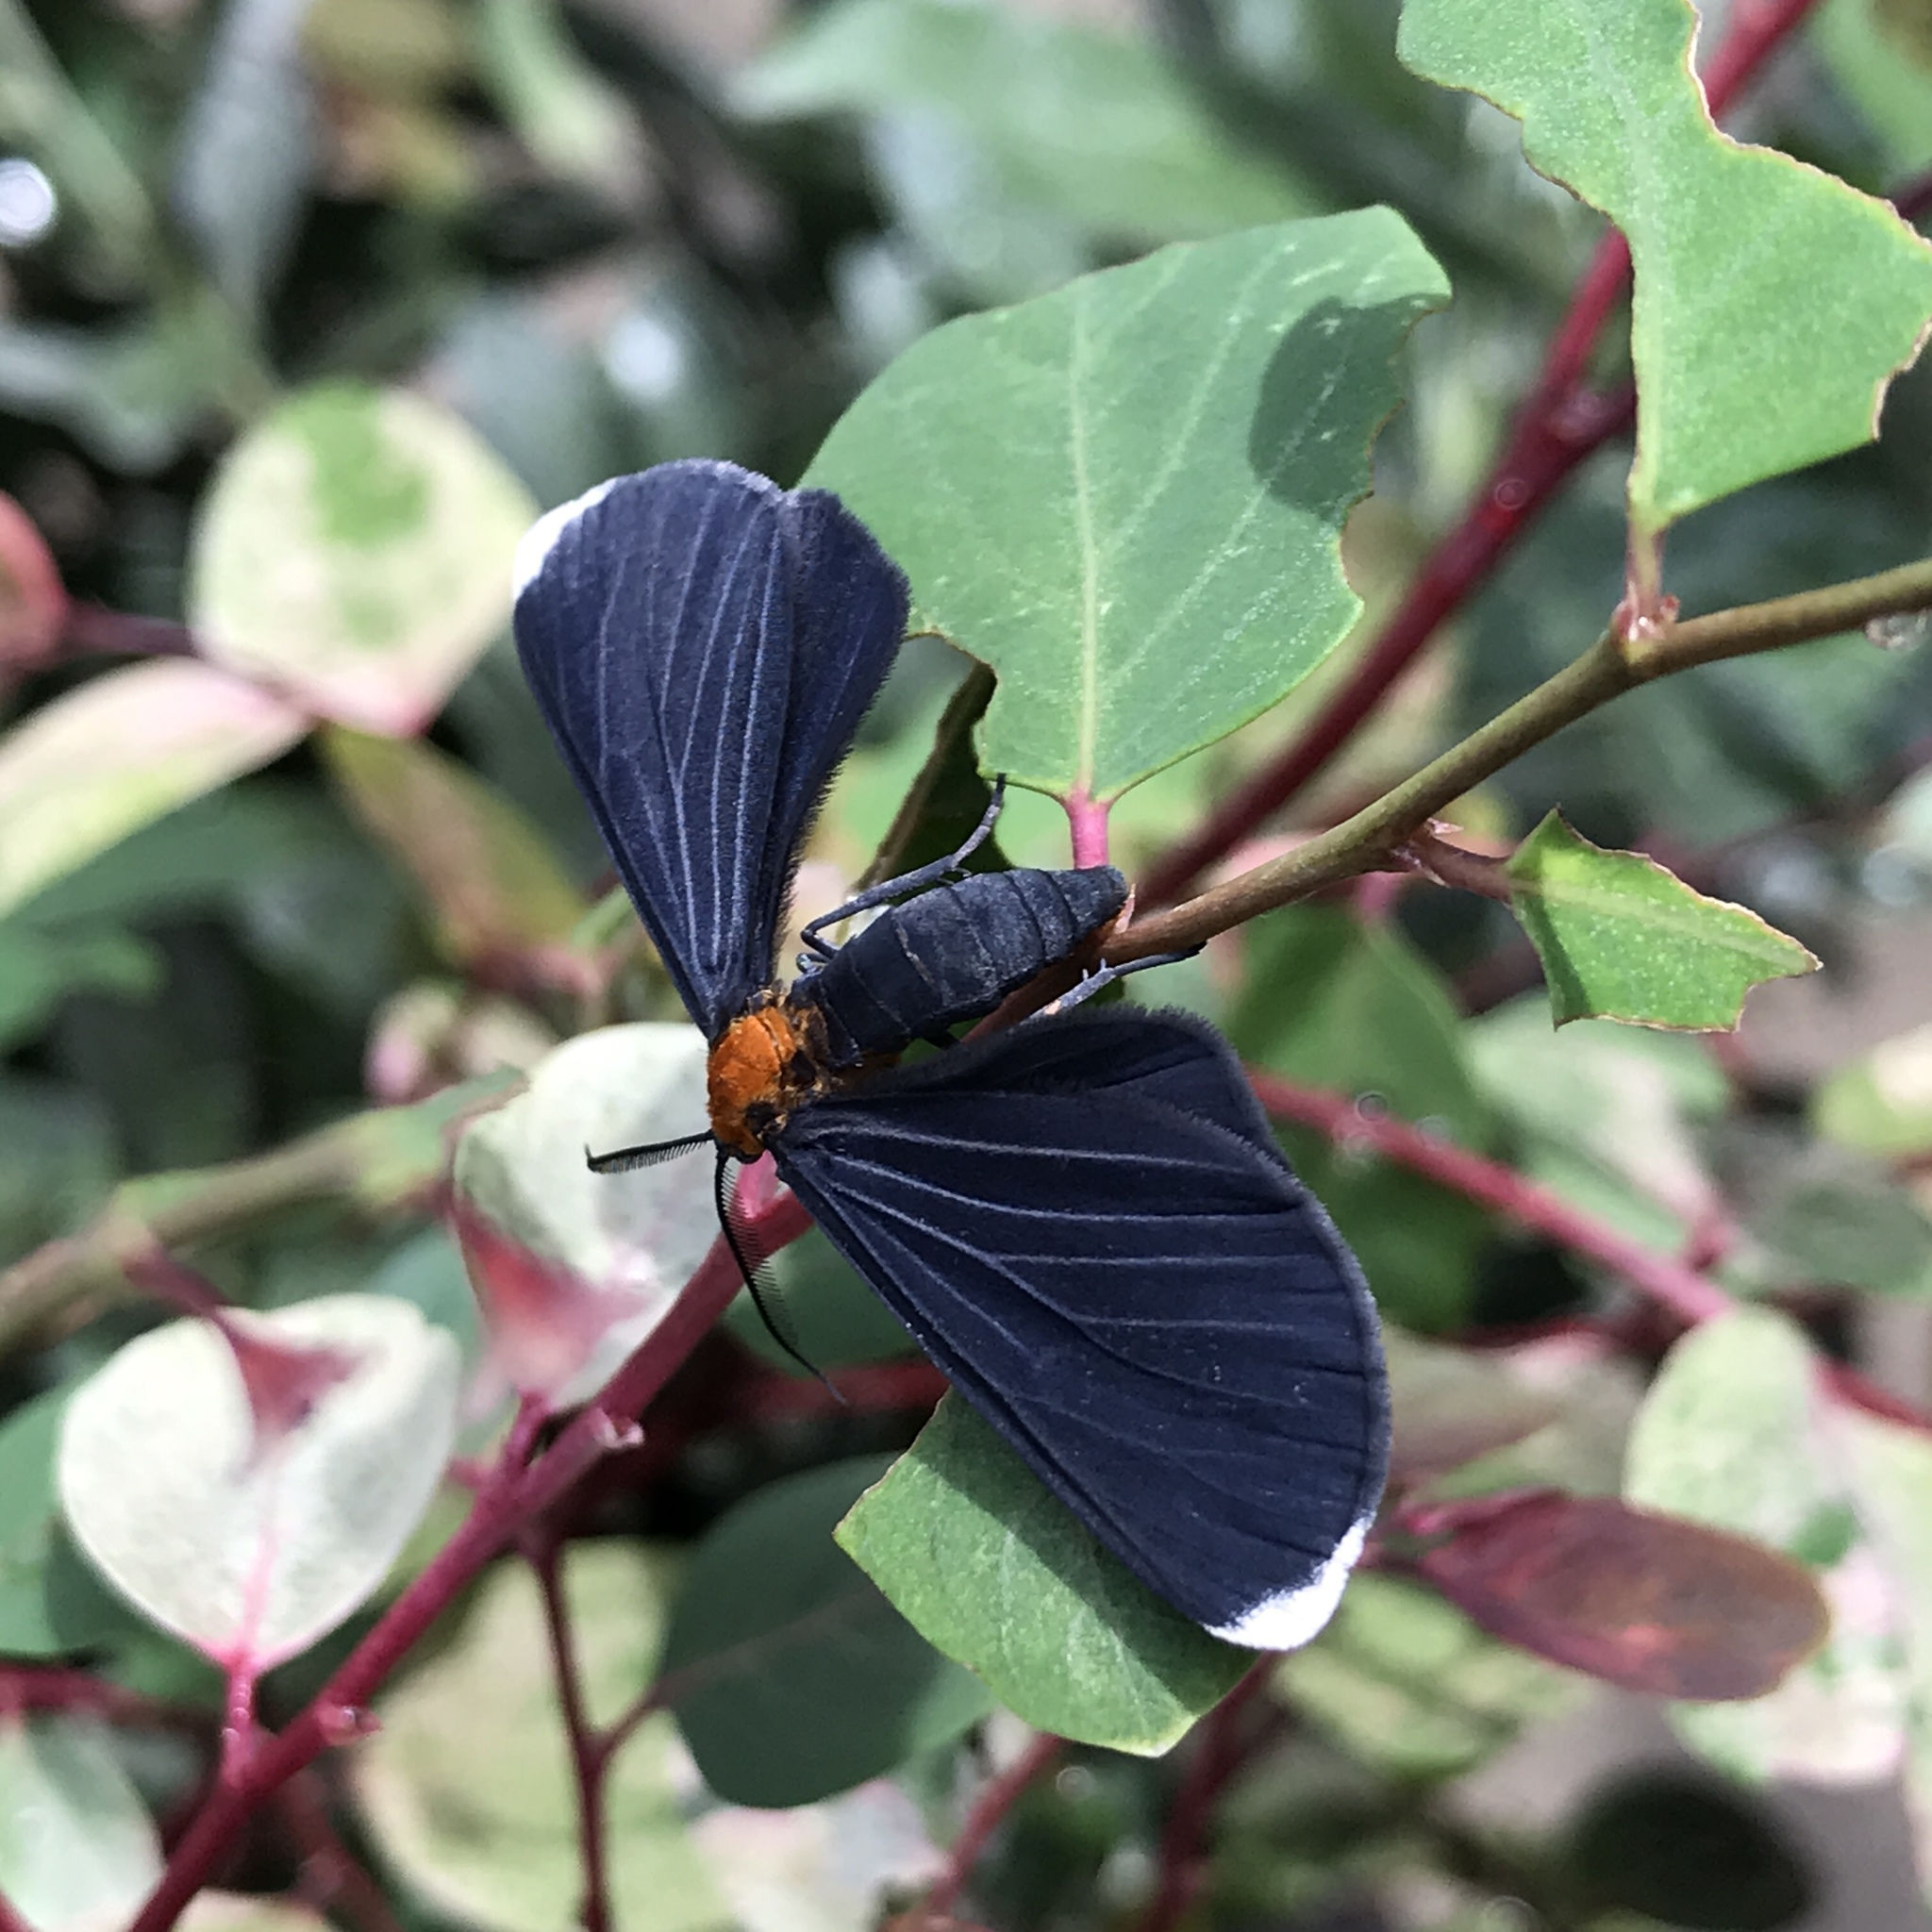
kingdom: Animalia
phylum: Arthropoda
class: Insecta
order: Lepidoptera
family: Geometridae
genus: Melanchroia
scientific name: Melanchroia chephise
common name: White-tipped black
